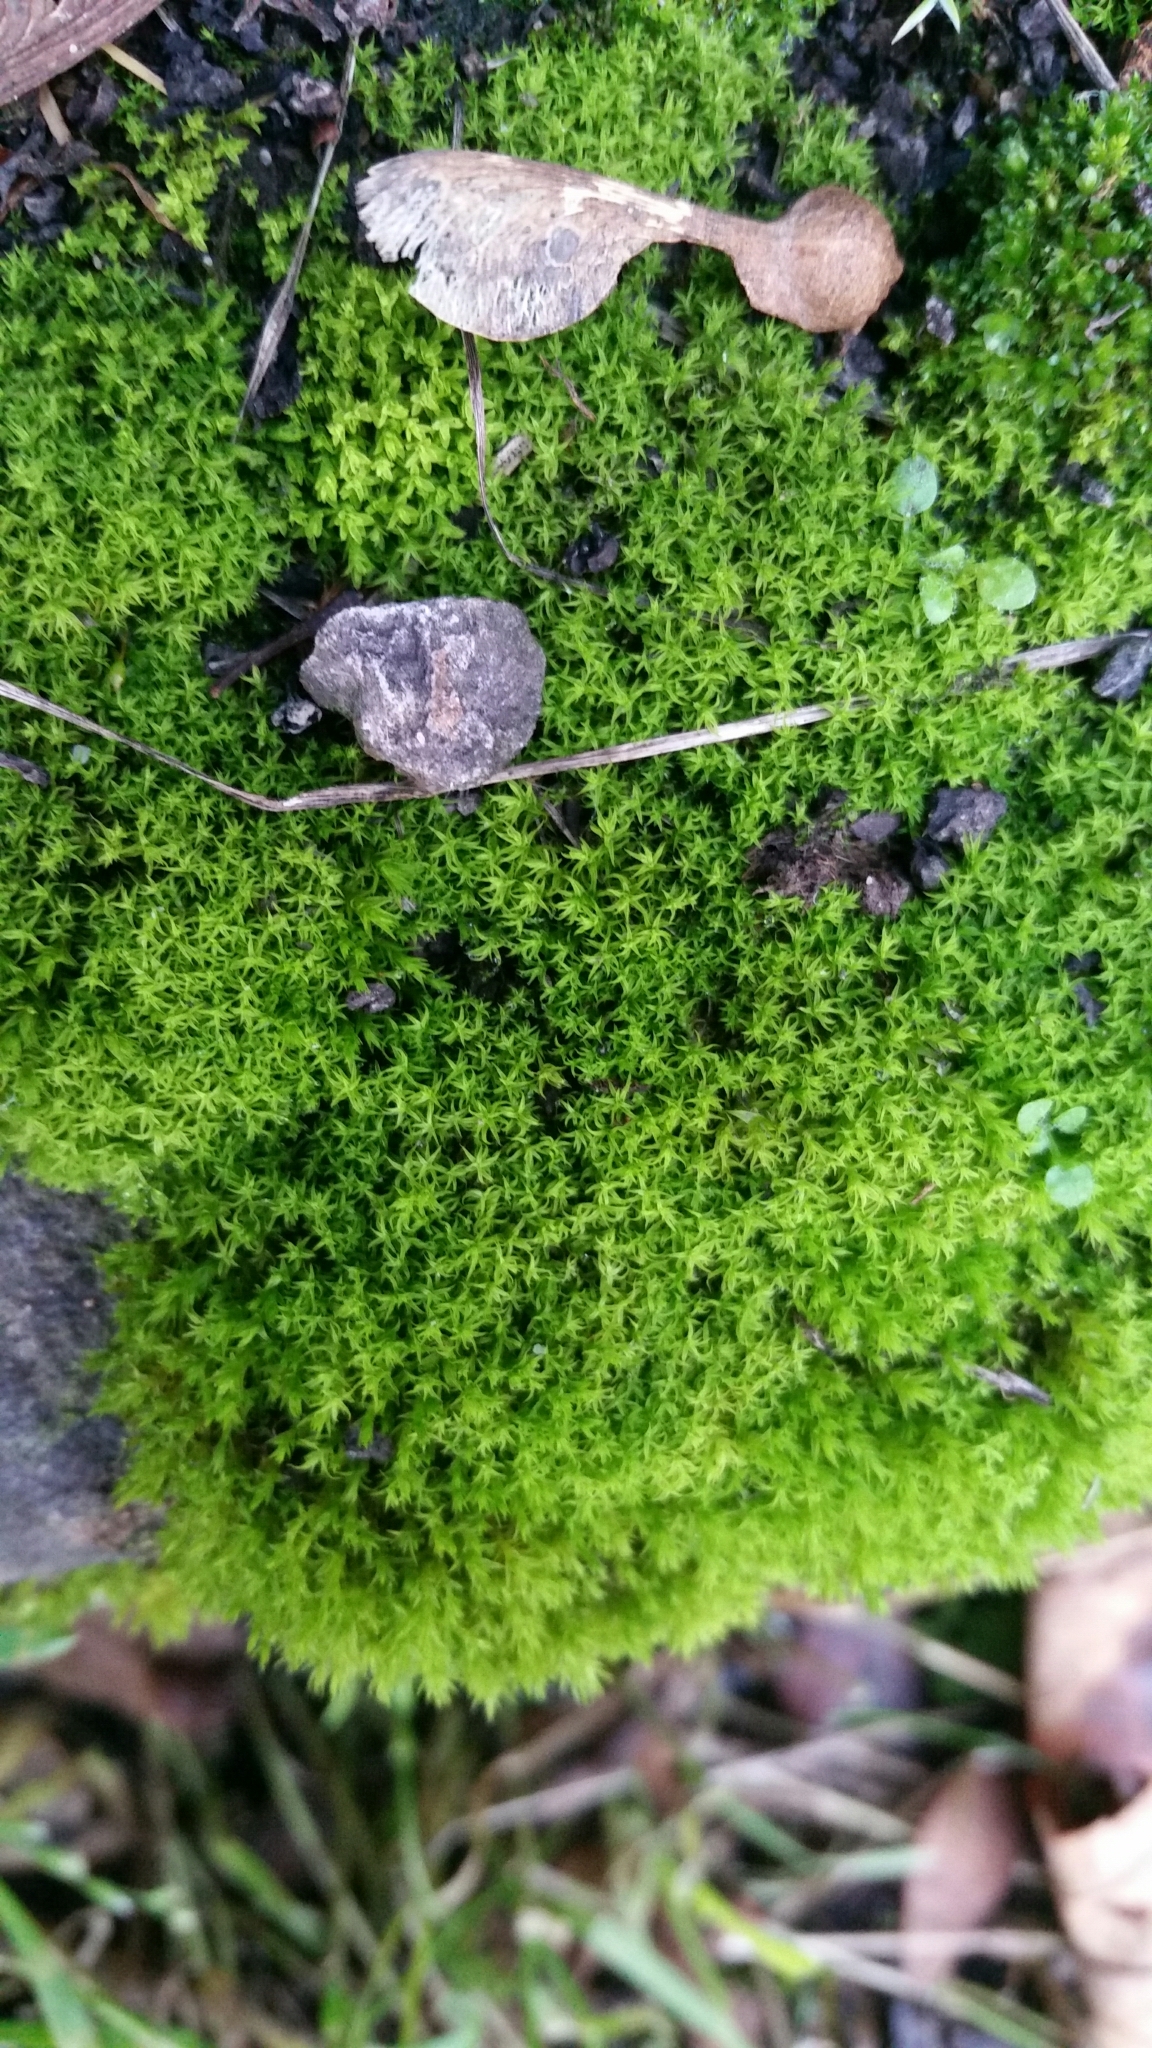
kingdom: Plantae
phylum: Bryophyta
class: Bryopsida
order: Pottiales
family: Pottiaceae
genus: Vinealobryum
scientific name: Vinealobryum insulanum
